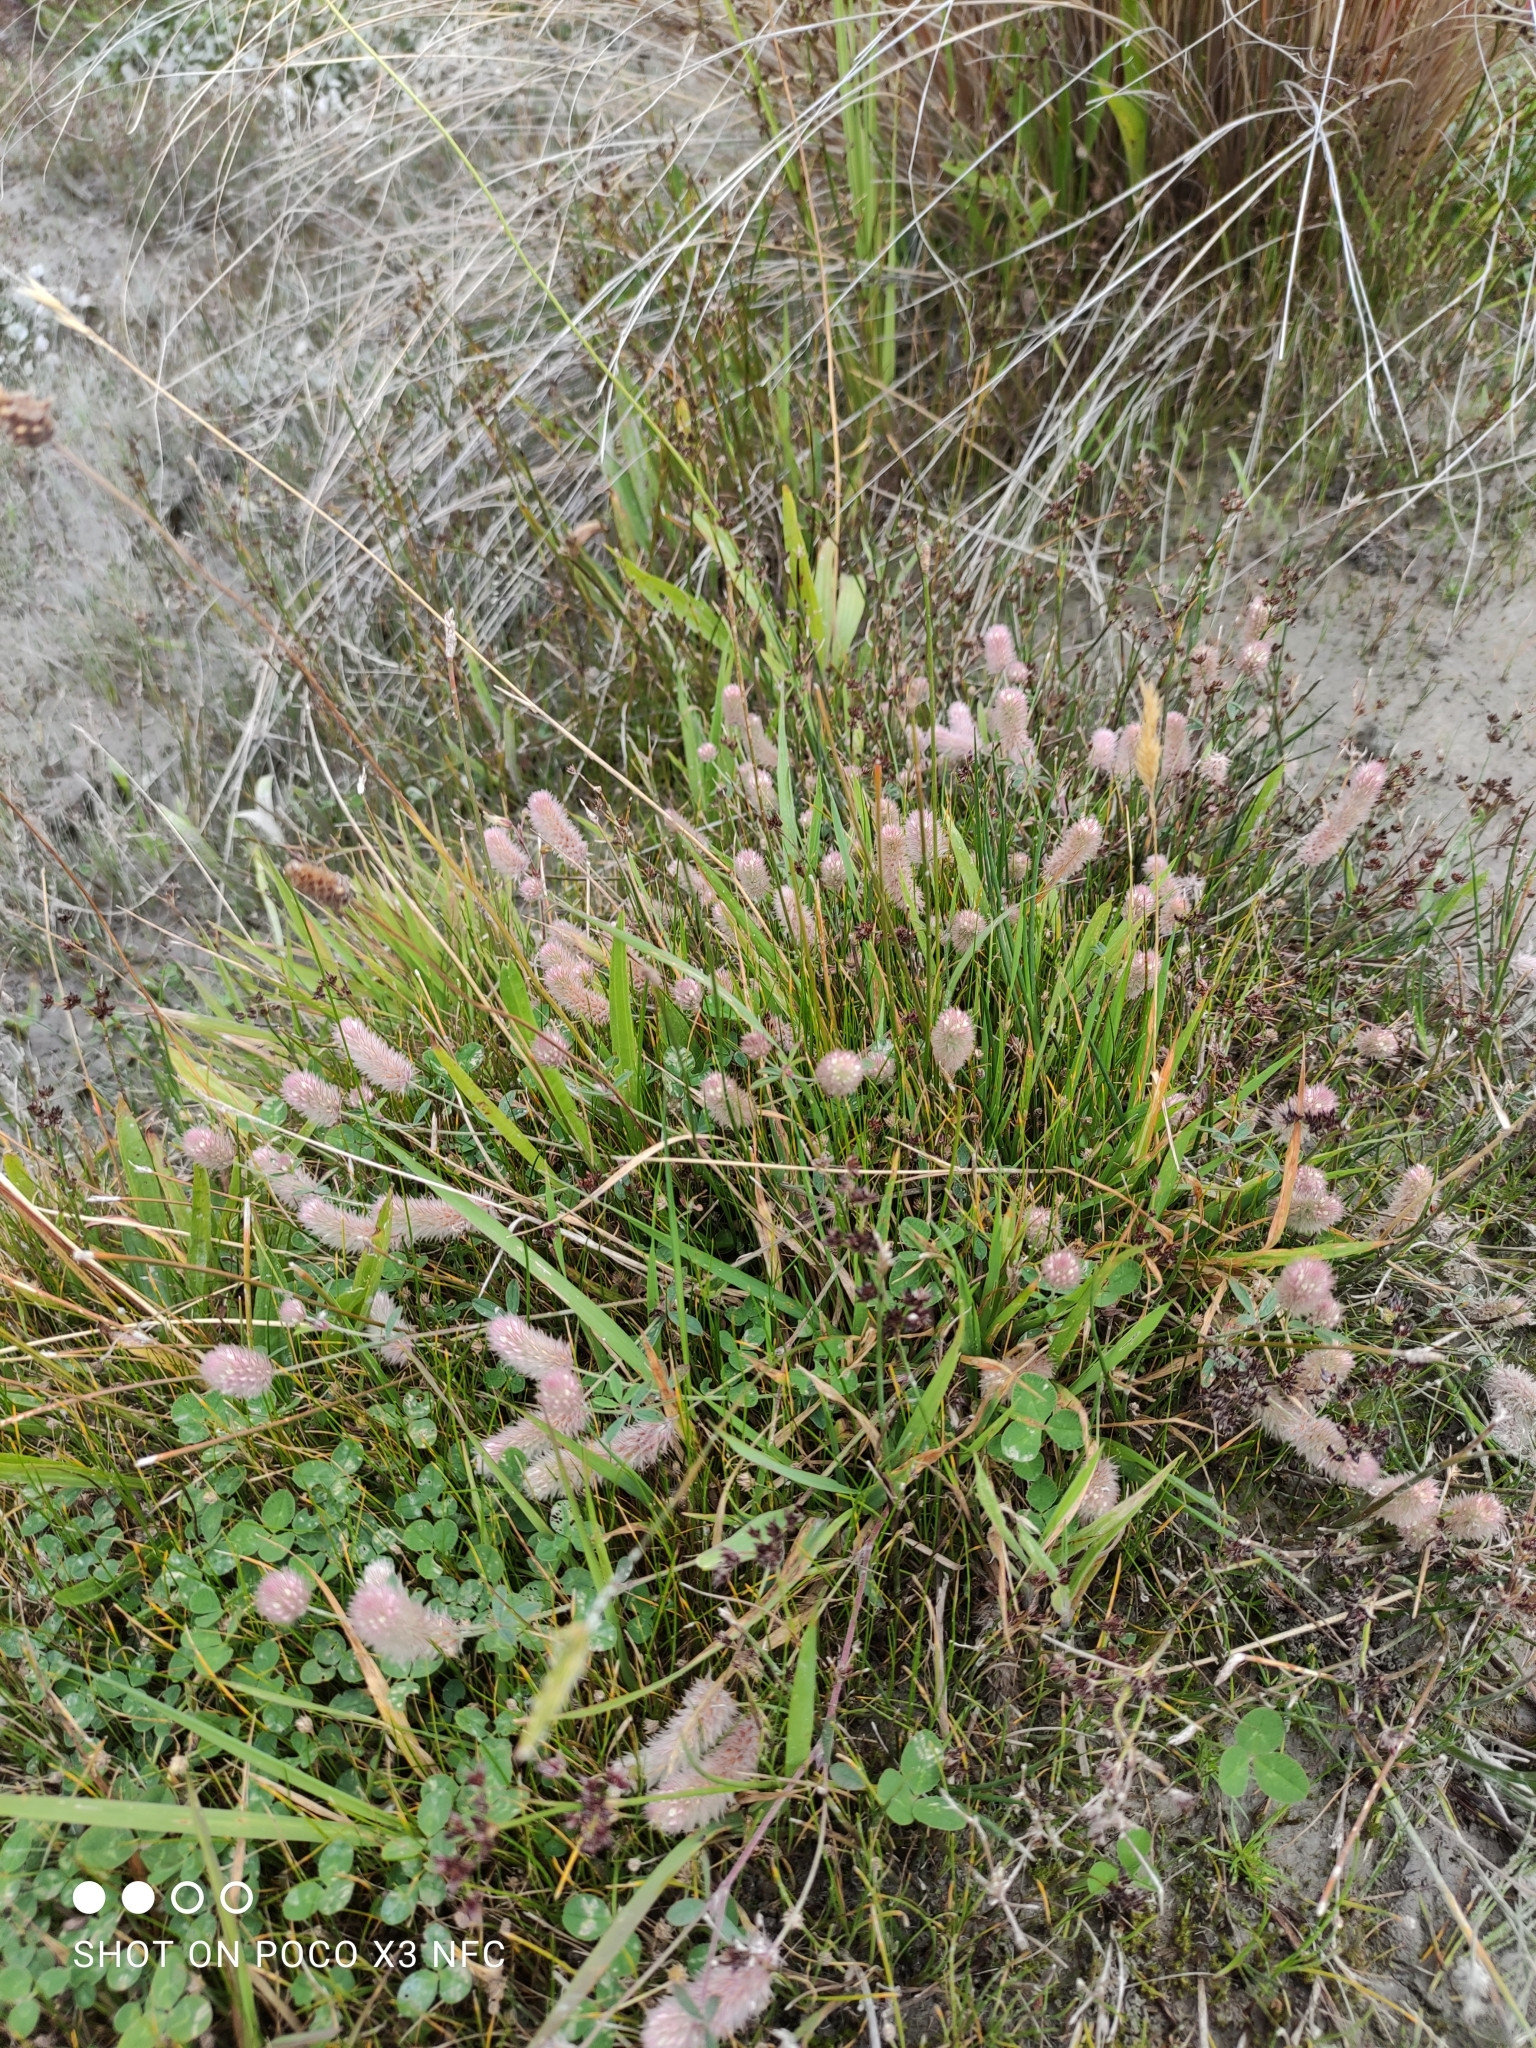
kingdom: Plantae
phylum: Tracheophyta
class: Magnoliopsida
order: Fabales
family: Fabaceae
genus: Trifolium
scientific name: Trifolium arvense
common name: Hare's-foot clover
